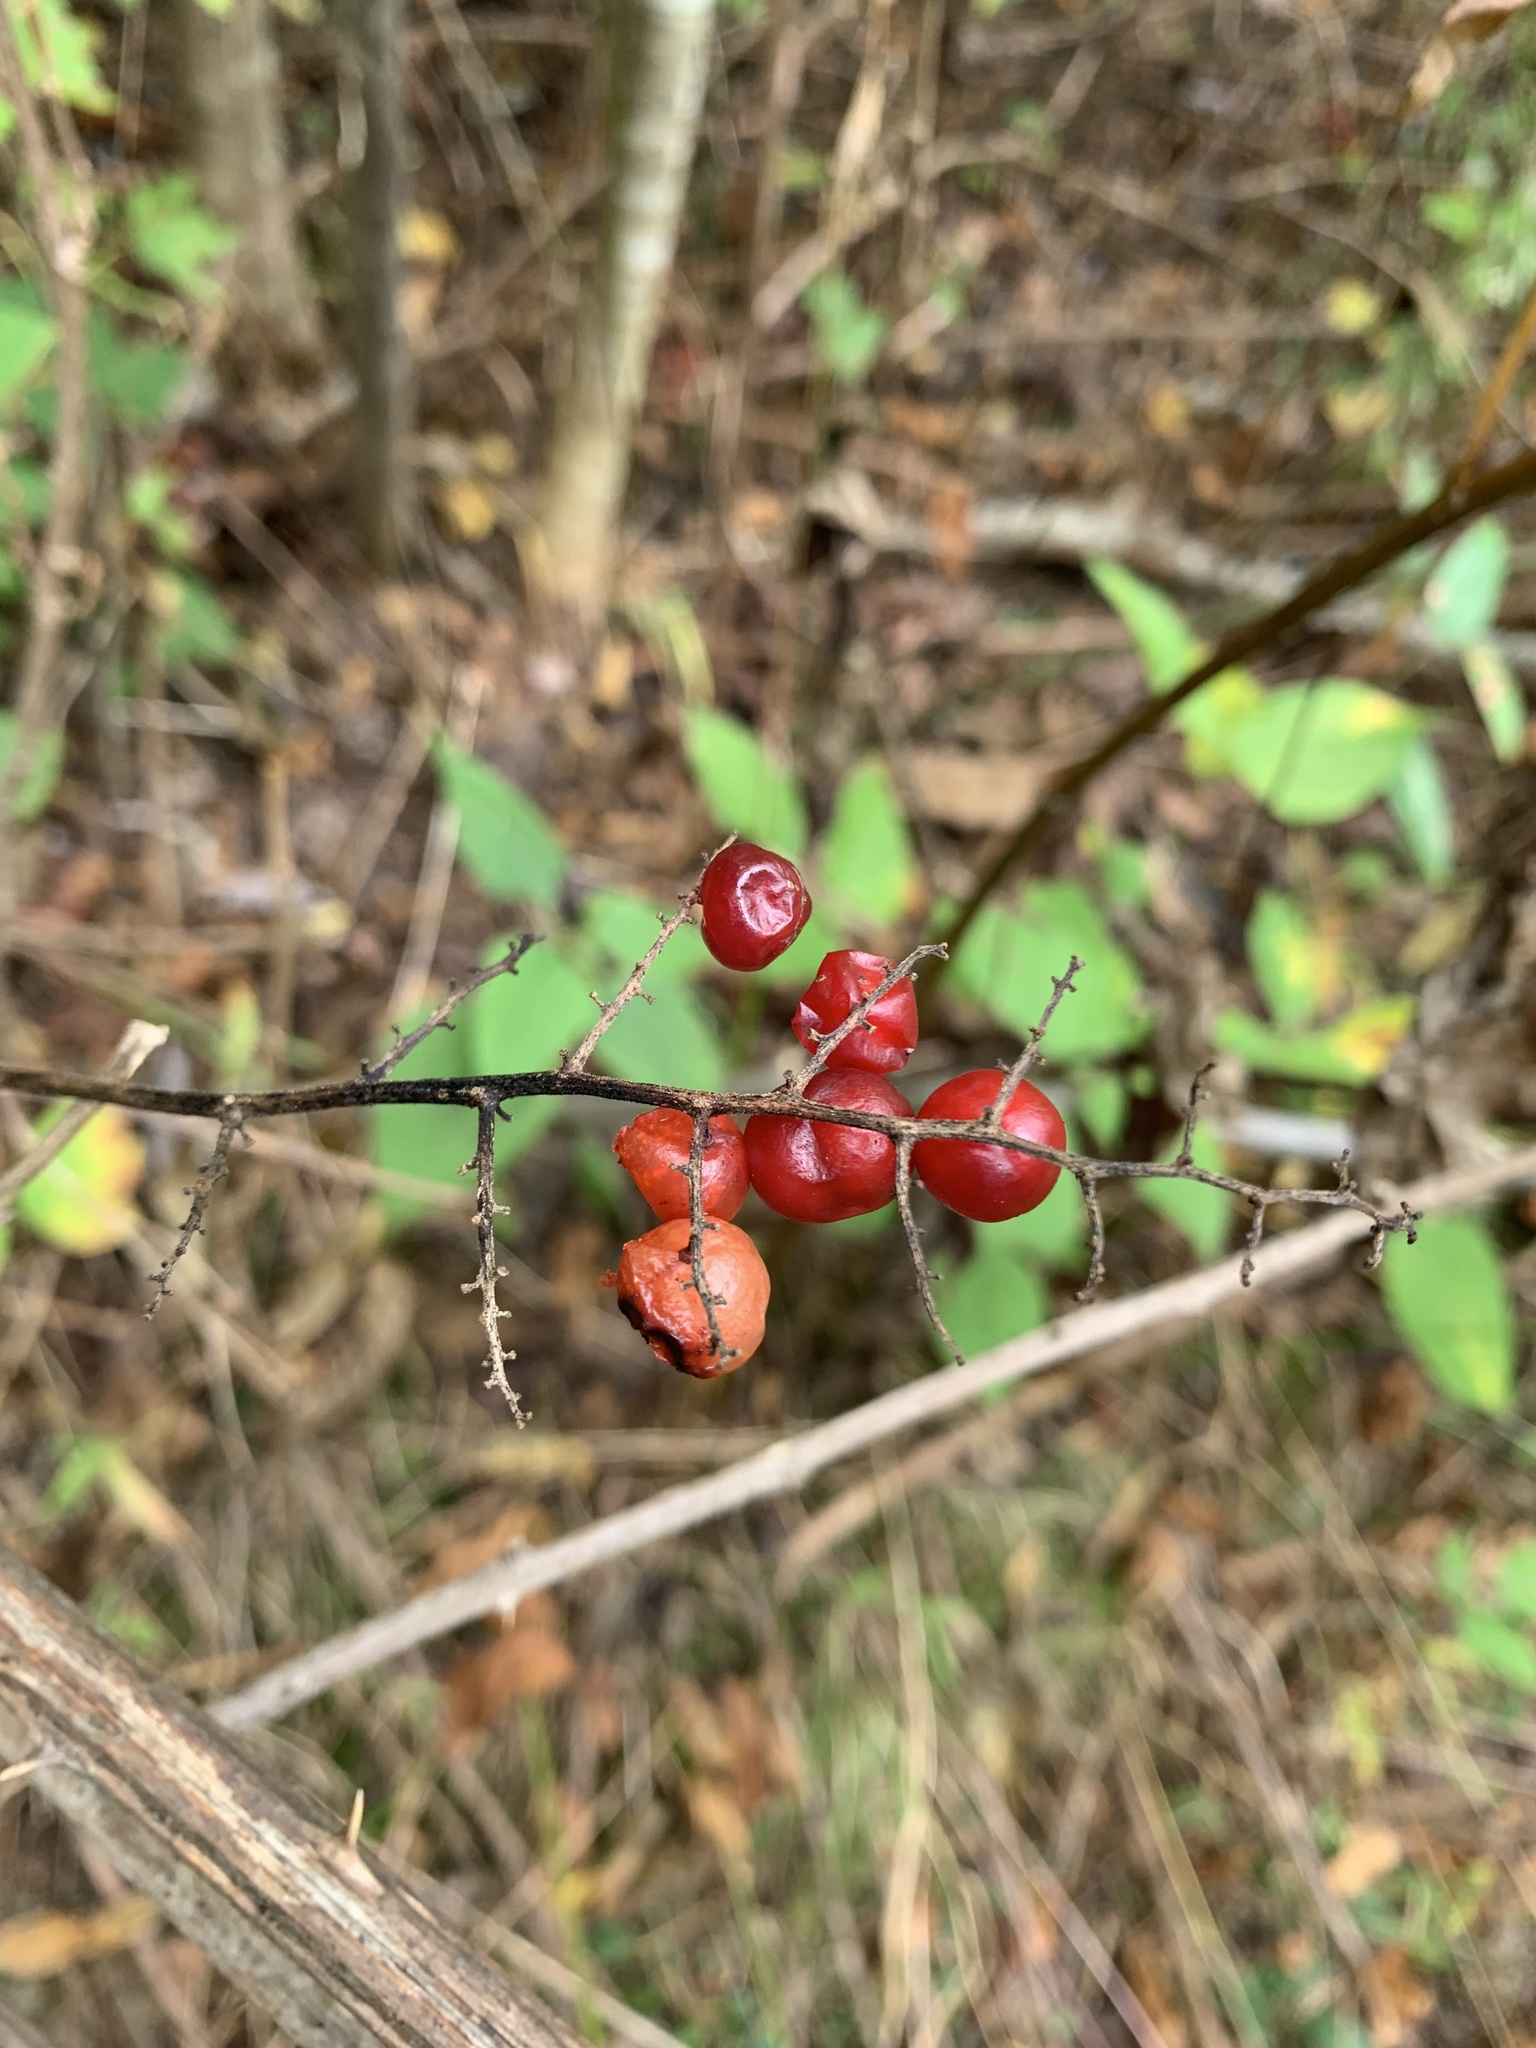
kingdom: Plantae
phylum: Tracheophyta
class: Liliopsida
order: Asparagales
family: Asparagaceae
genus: Maianthemum
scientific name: Maianthemum racemosum
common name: False spikenard
